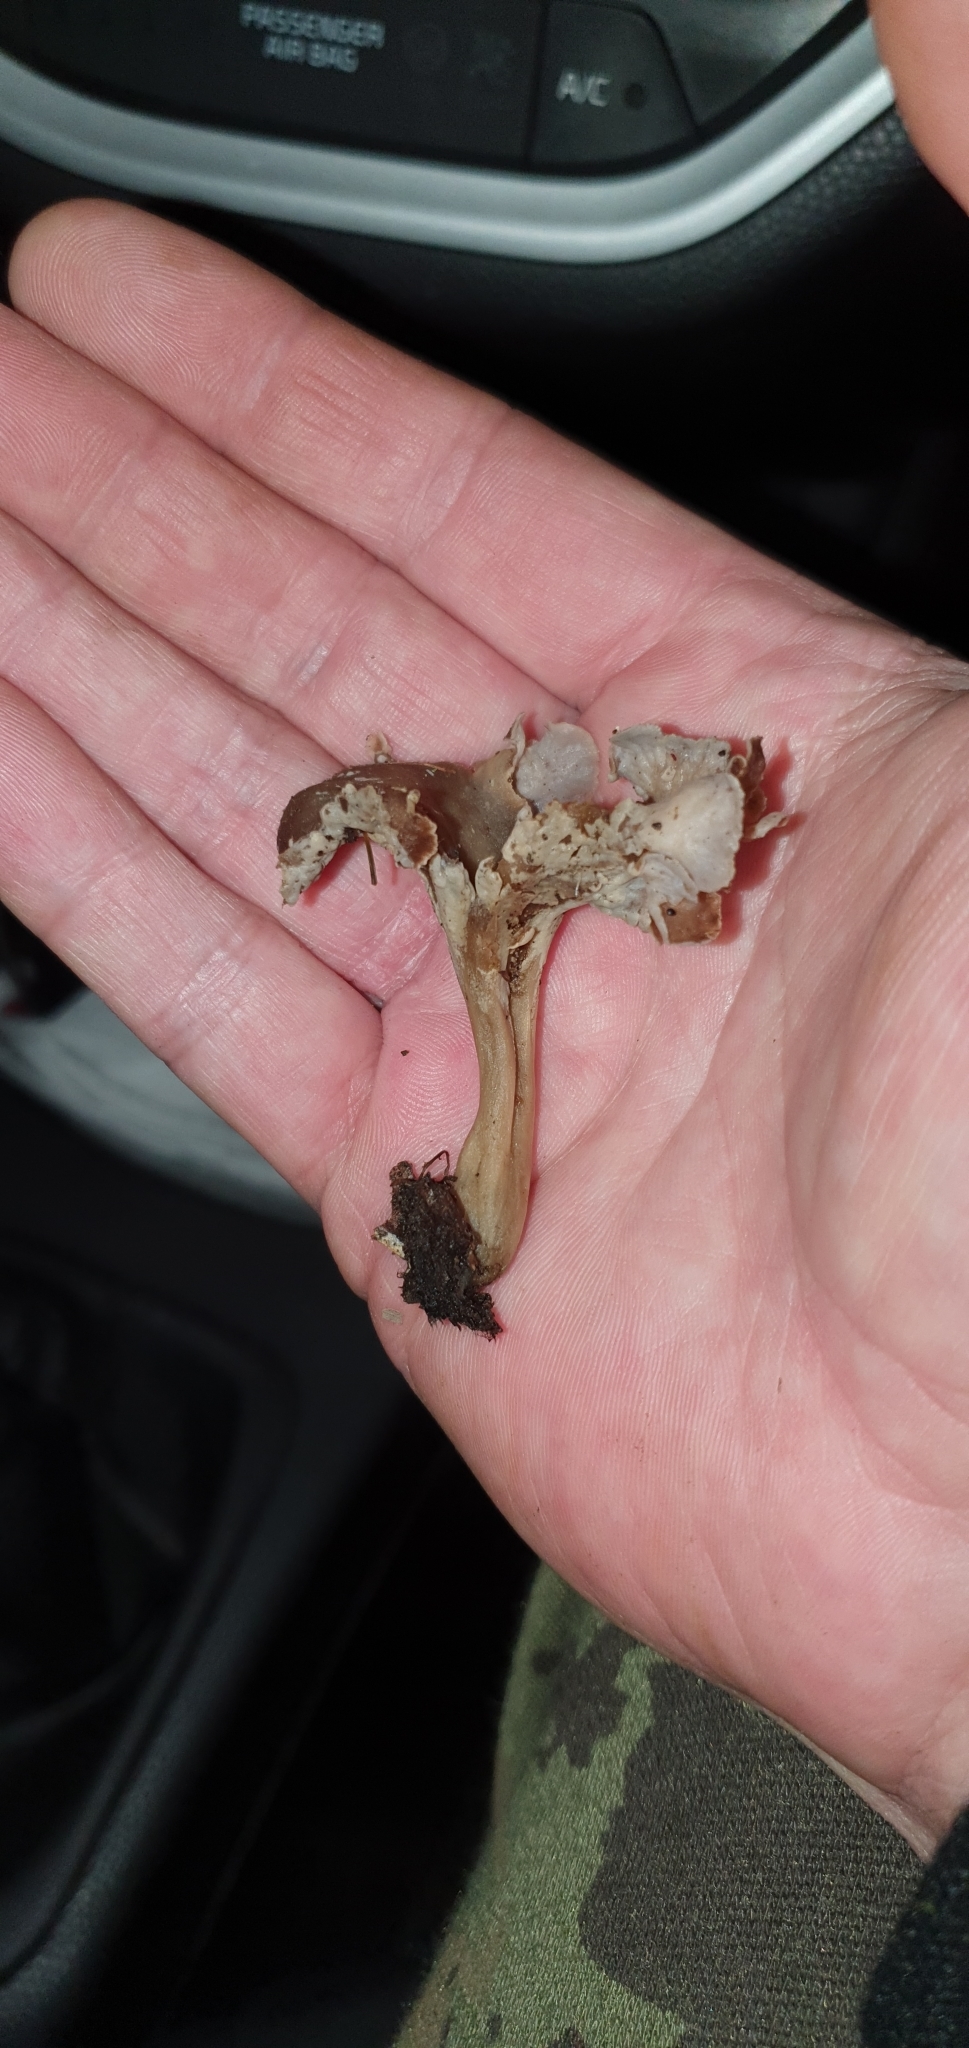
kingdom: Fungi
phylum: Basidiomycota
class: Agaricomycetes
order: Cantharellales
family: Hydnaceae
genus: Craterellus
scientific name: Craterellus undulatus
